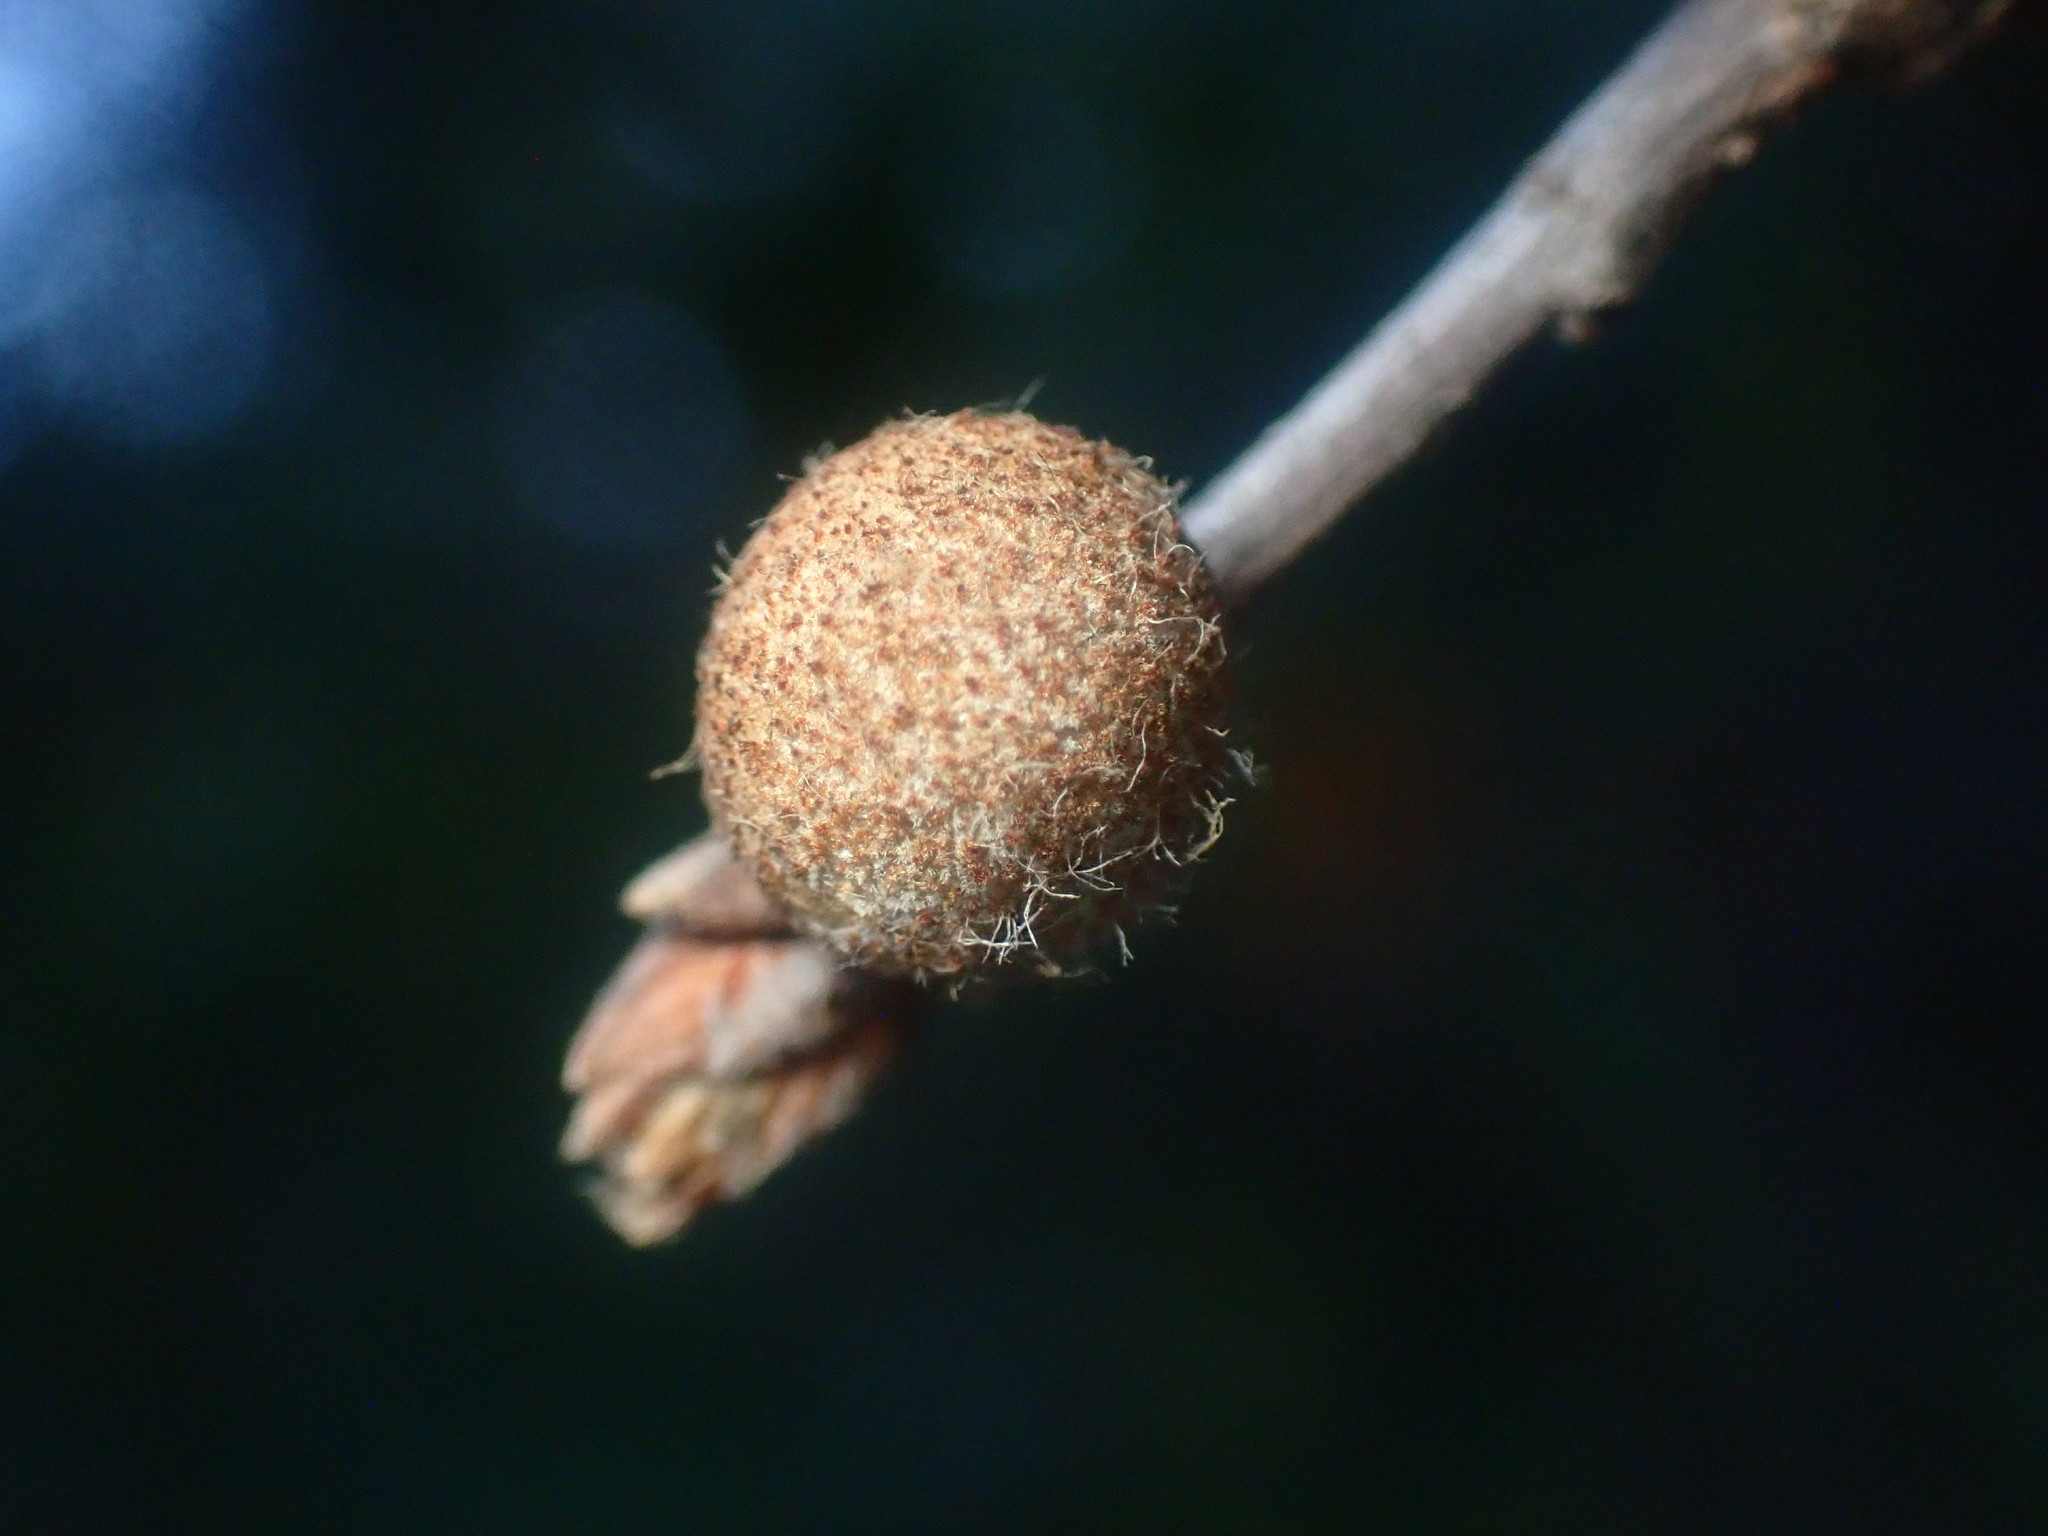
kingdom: Animalia
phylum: Arthropoda
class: Insecta
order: Hymenoptera
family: Cynipidae
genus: Burnettweldia
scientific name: Burnettweldia
